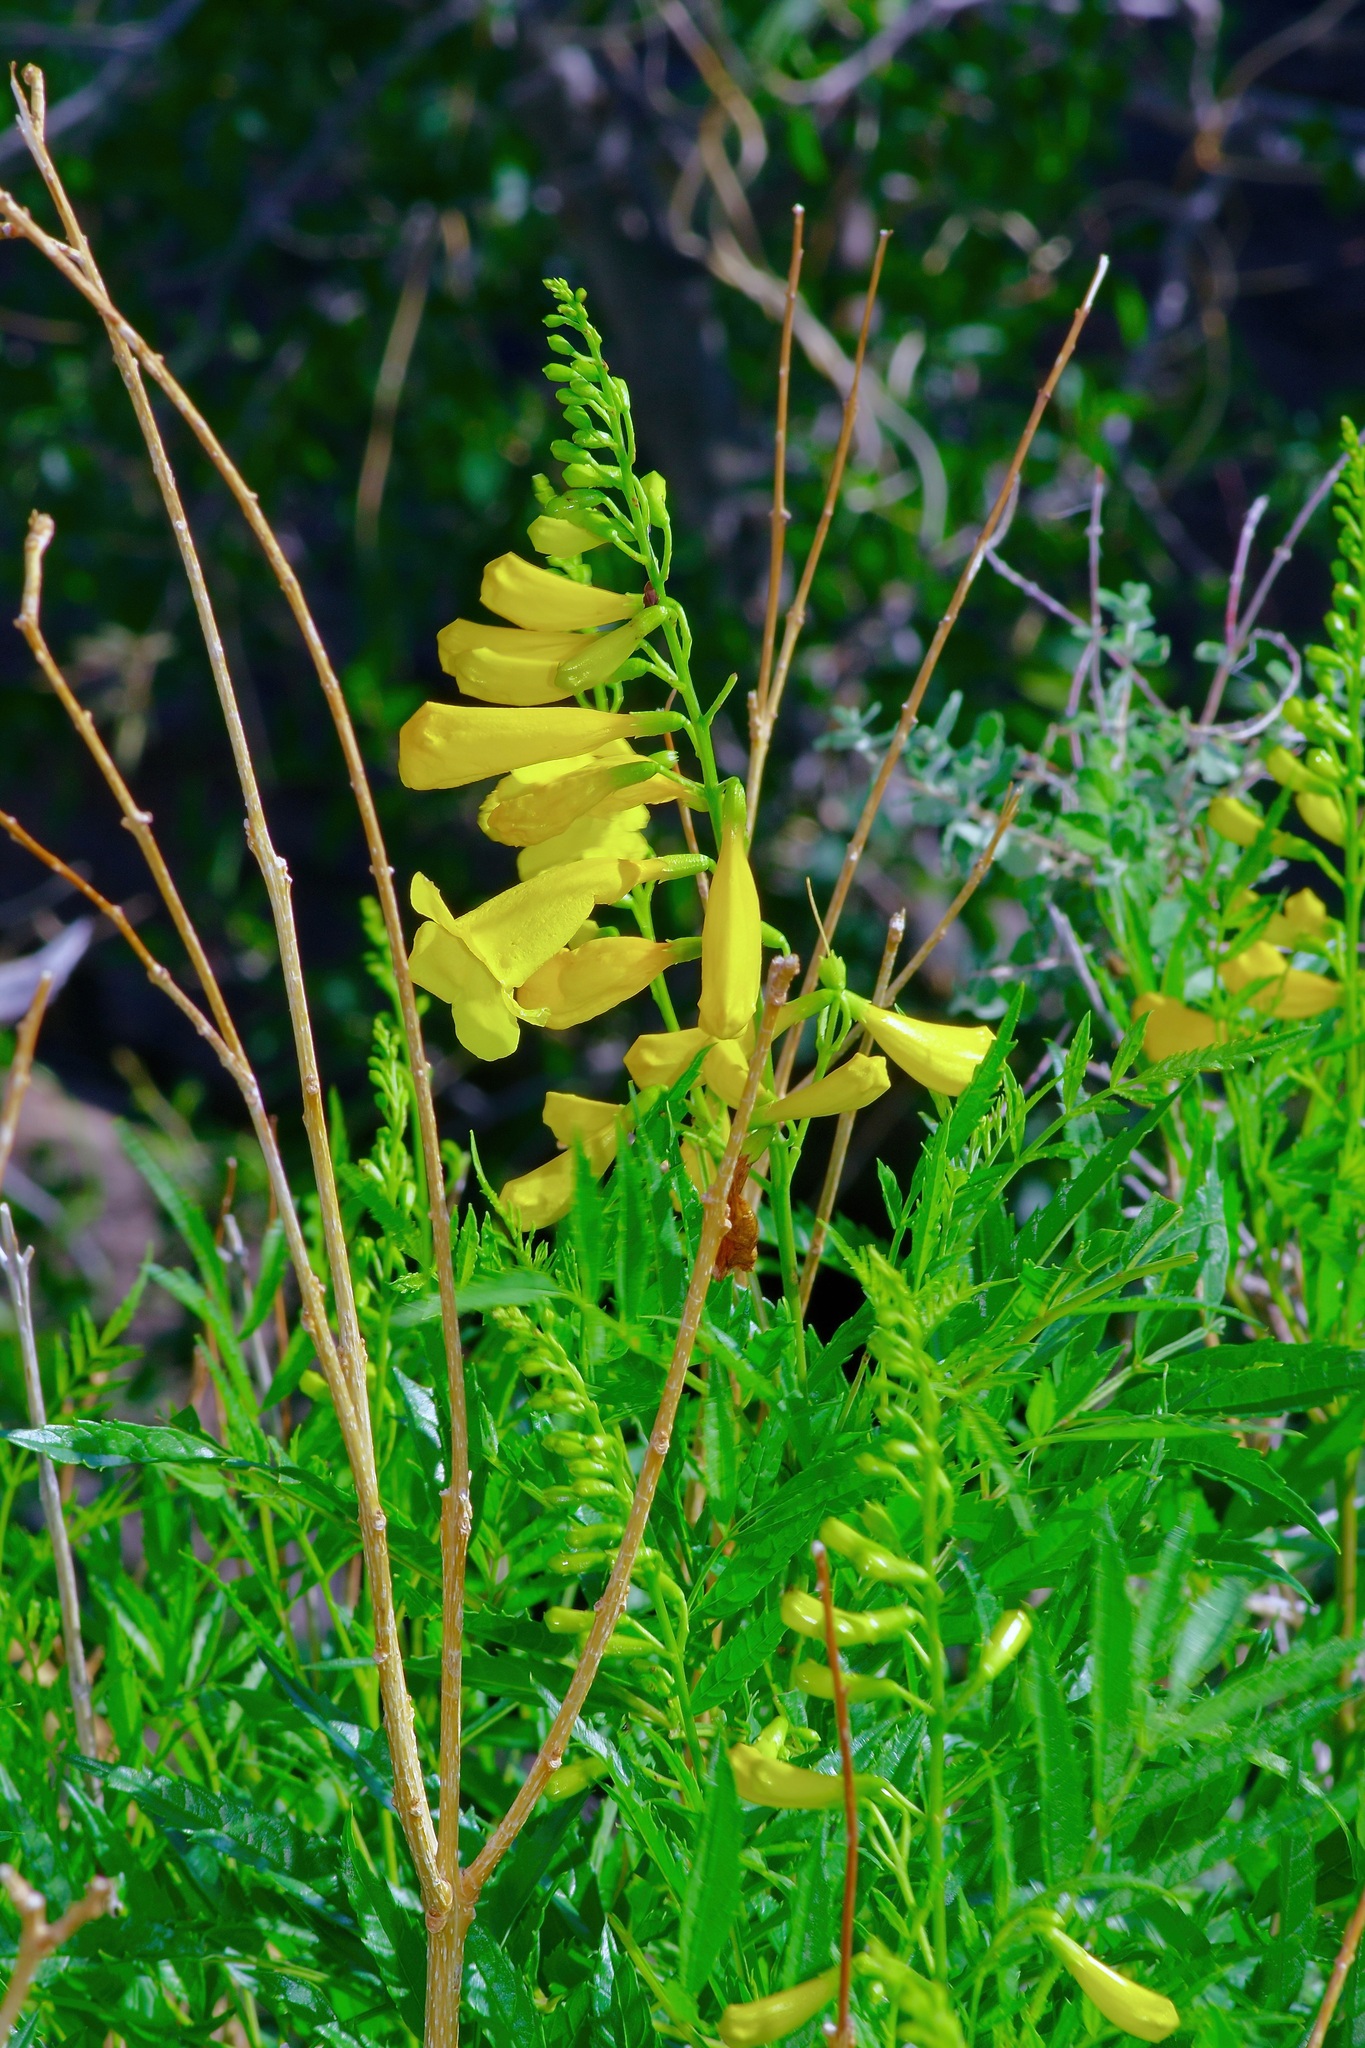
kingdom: Plantae
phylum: Tracheophyta
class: Magnoliopsida
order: Lamiales
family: Bignoniaceae
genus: Tecoma
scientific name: Tecoma stans
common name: Yellow trumpetbush
